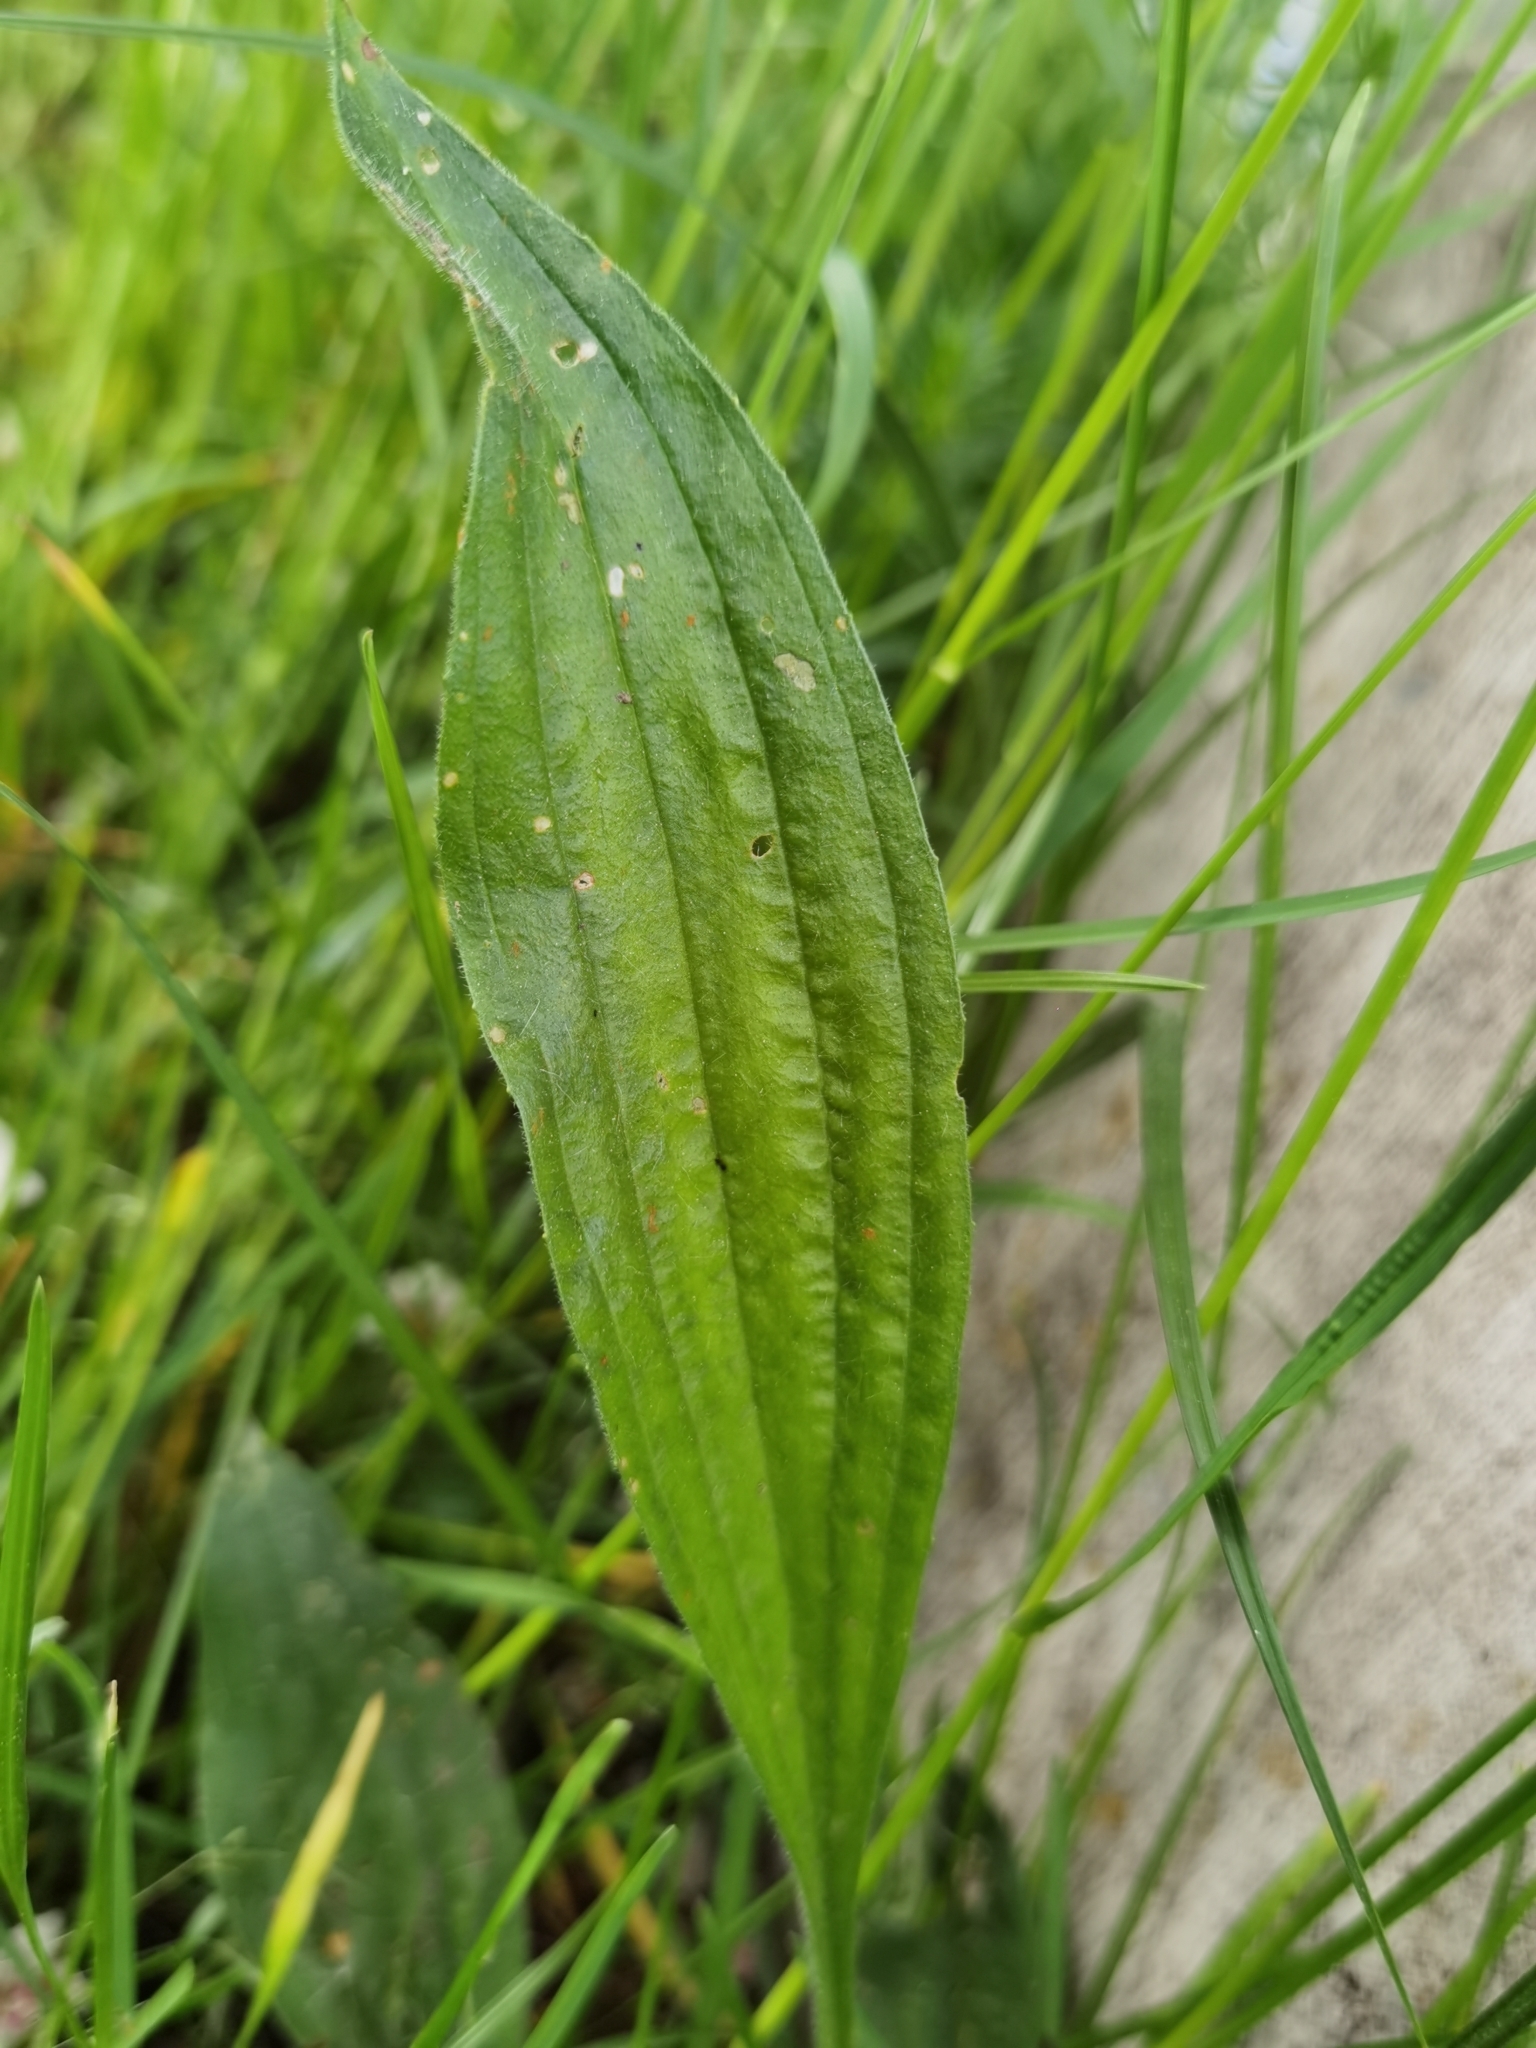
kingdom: Plantae
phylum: Tracheophyta
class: Magnoliopsida
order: Lamiales
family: Plantaginaceae
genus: Plantago
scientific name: Plantago lanceolata
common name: Ribwort plantain
